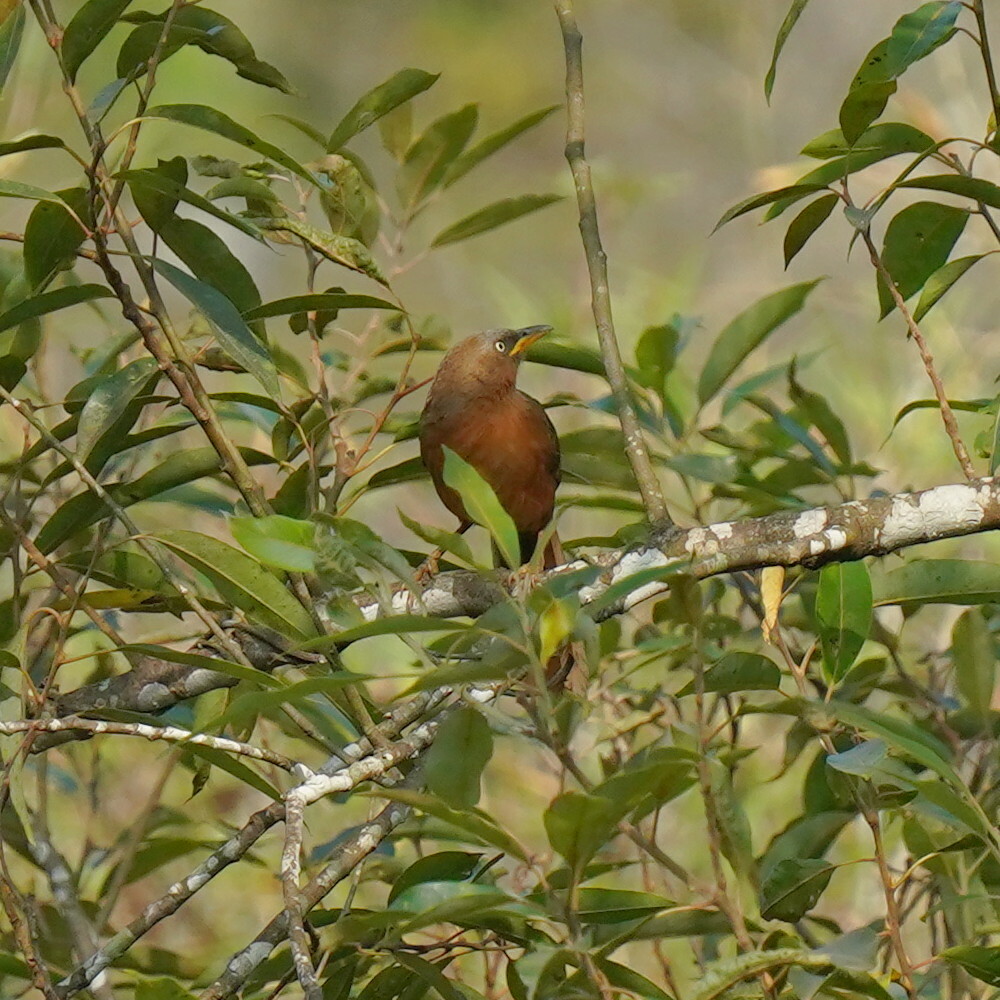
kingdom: Animalia
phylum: Chordata
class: Aves
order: Passeriformes
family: Leiothrichidae
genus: Turdoides
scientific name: Turdoides subrufa
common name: Rufous babbler
